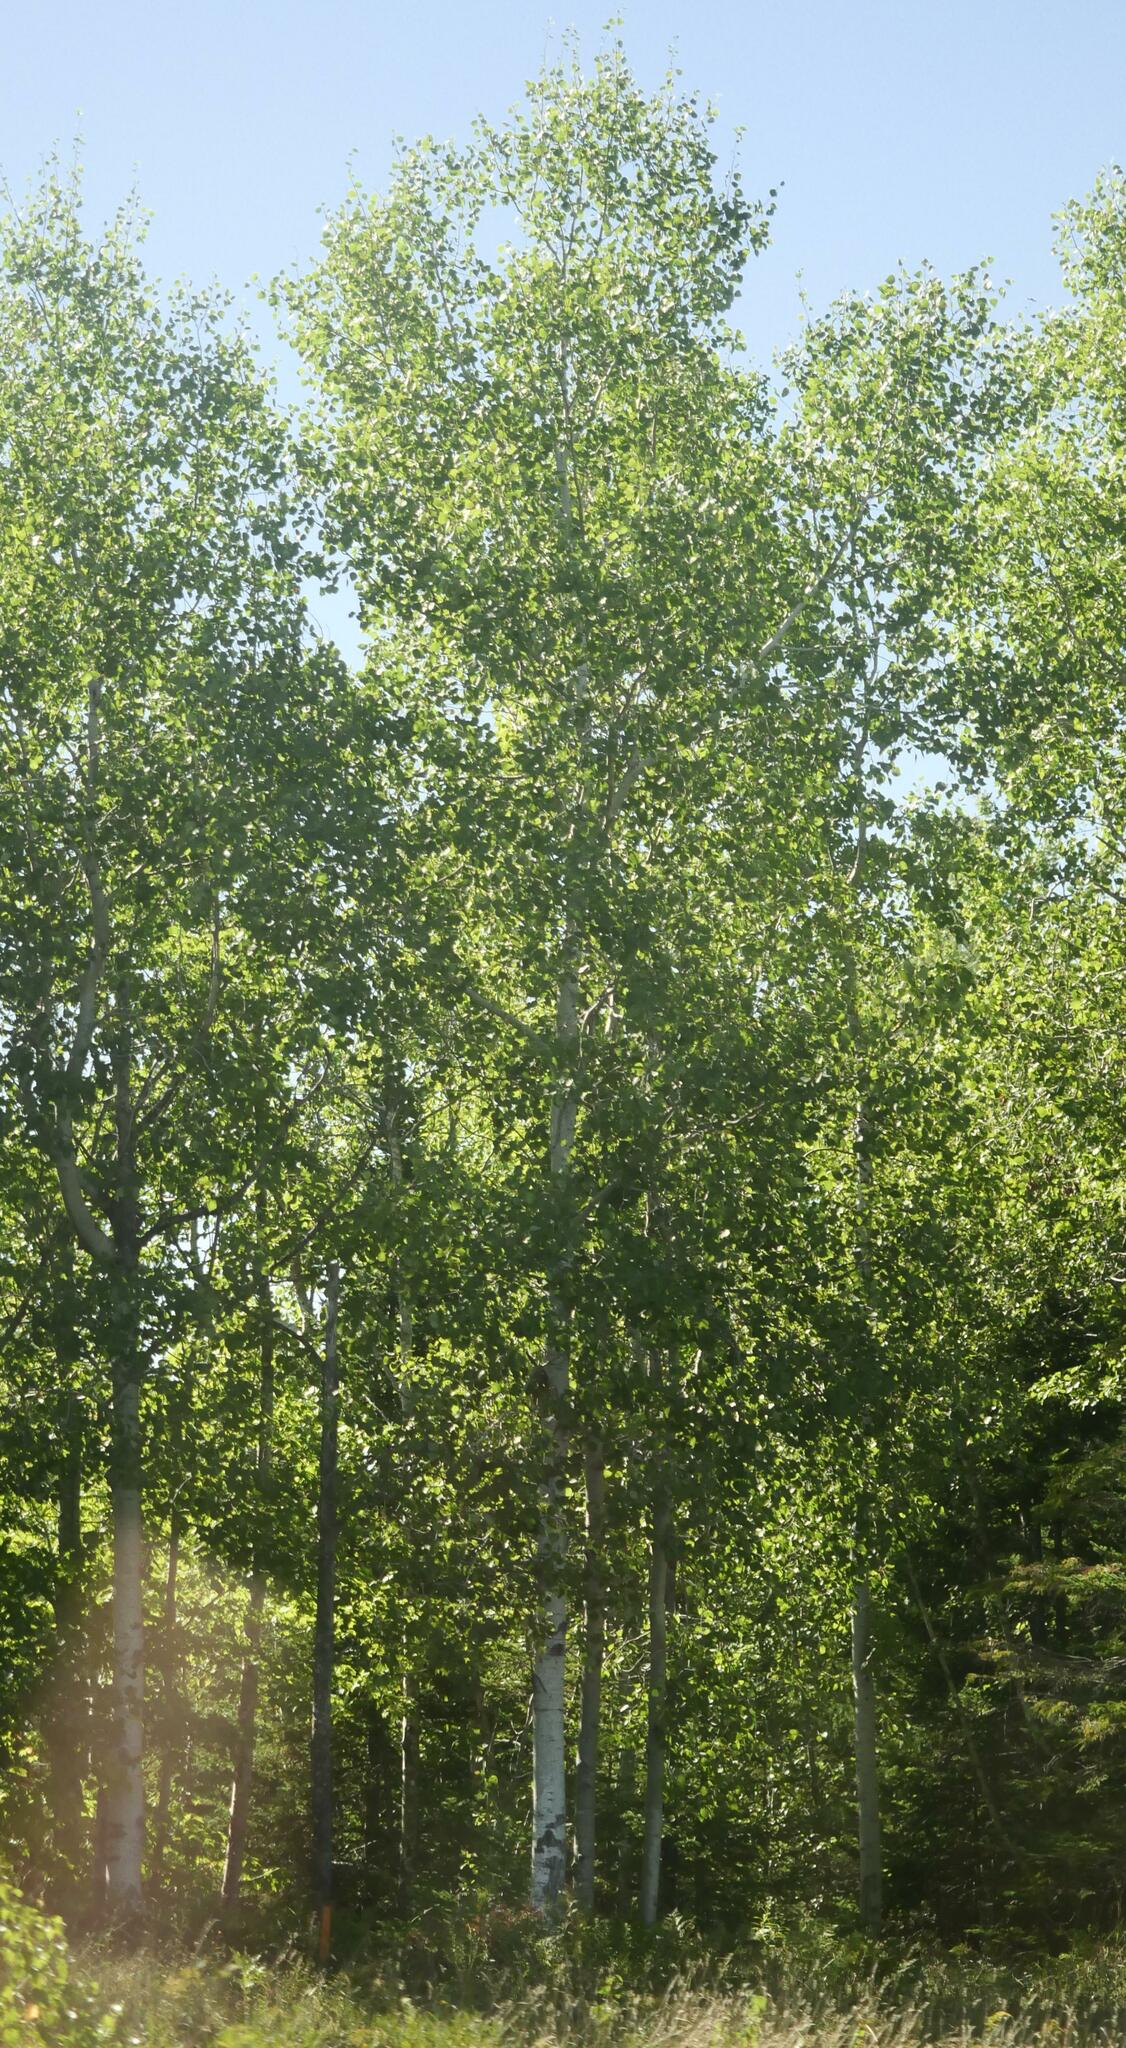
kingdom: Plantae
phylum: Tracheophyta
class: Magnoliopsida
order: Malpighiales
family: Salicaceae
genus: Populus
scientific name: Populus tremuloides
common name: Quaking aspen
